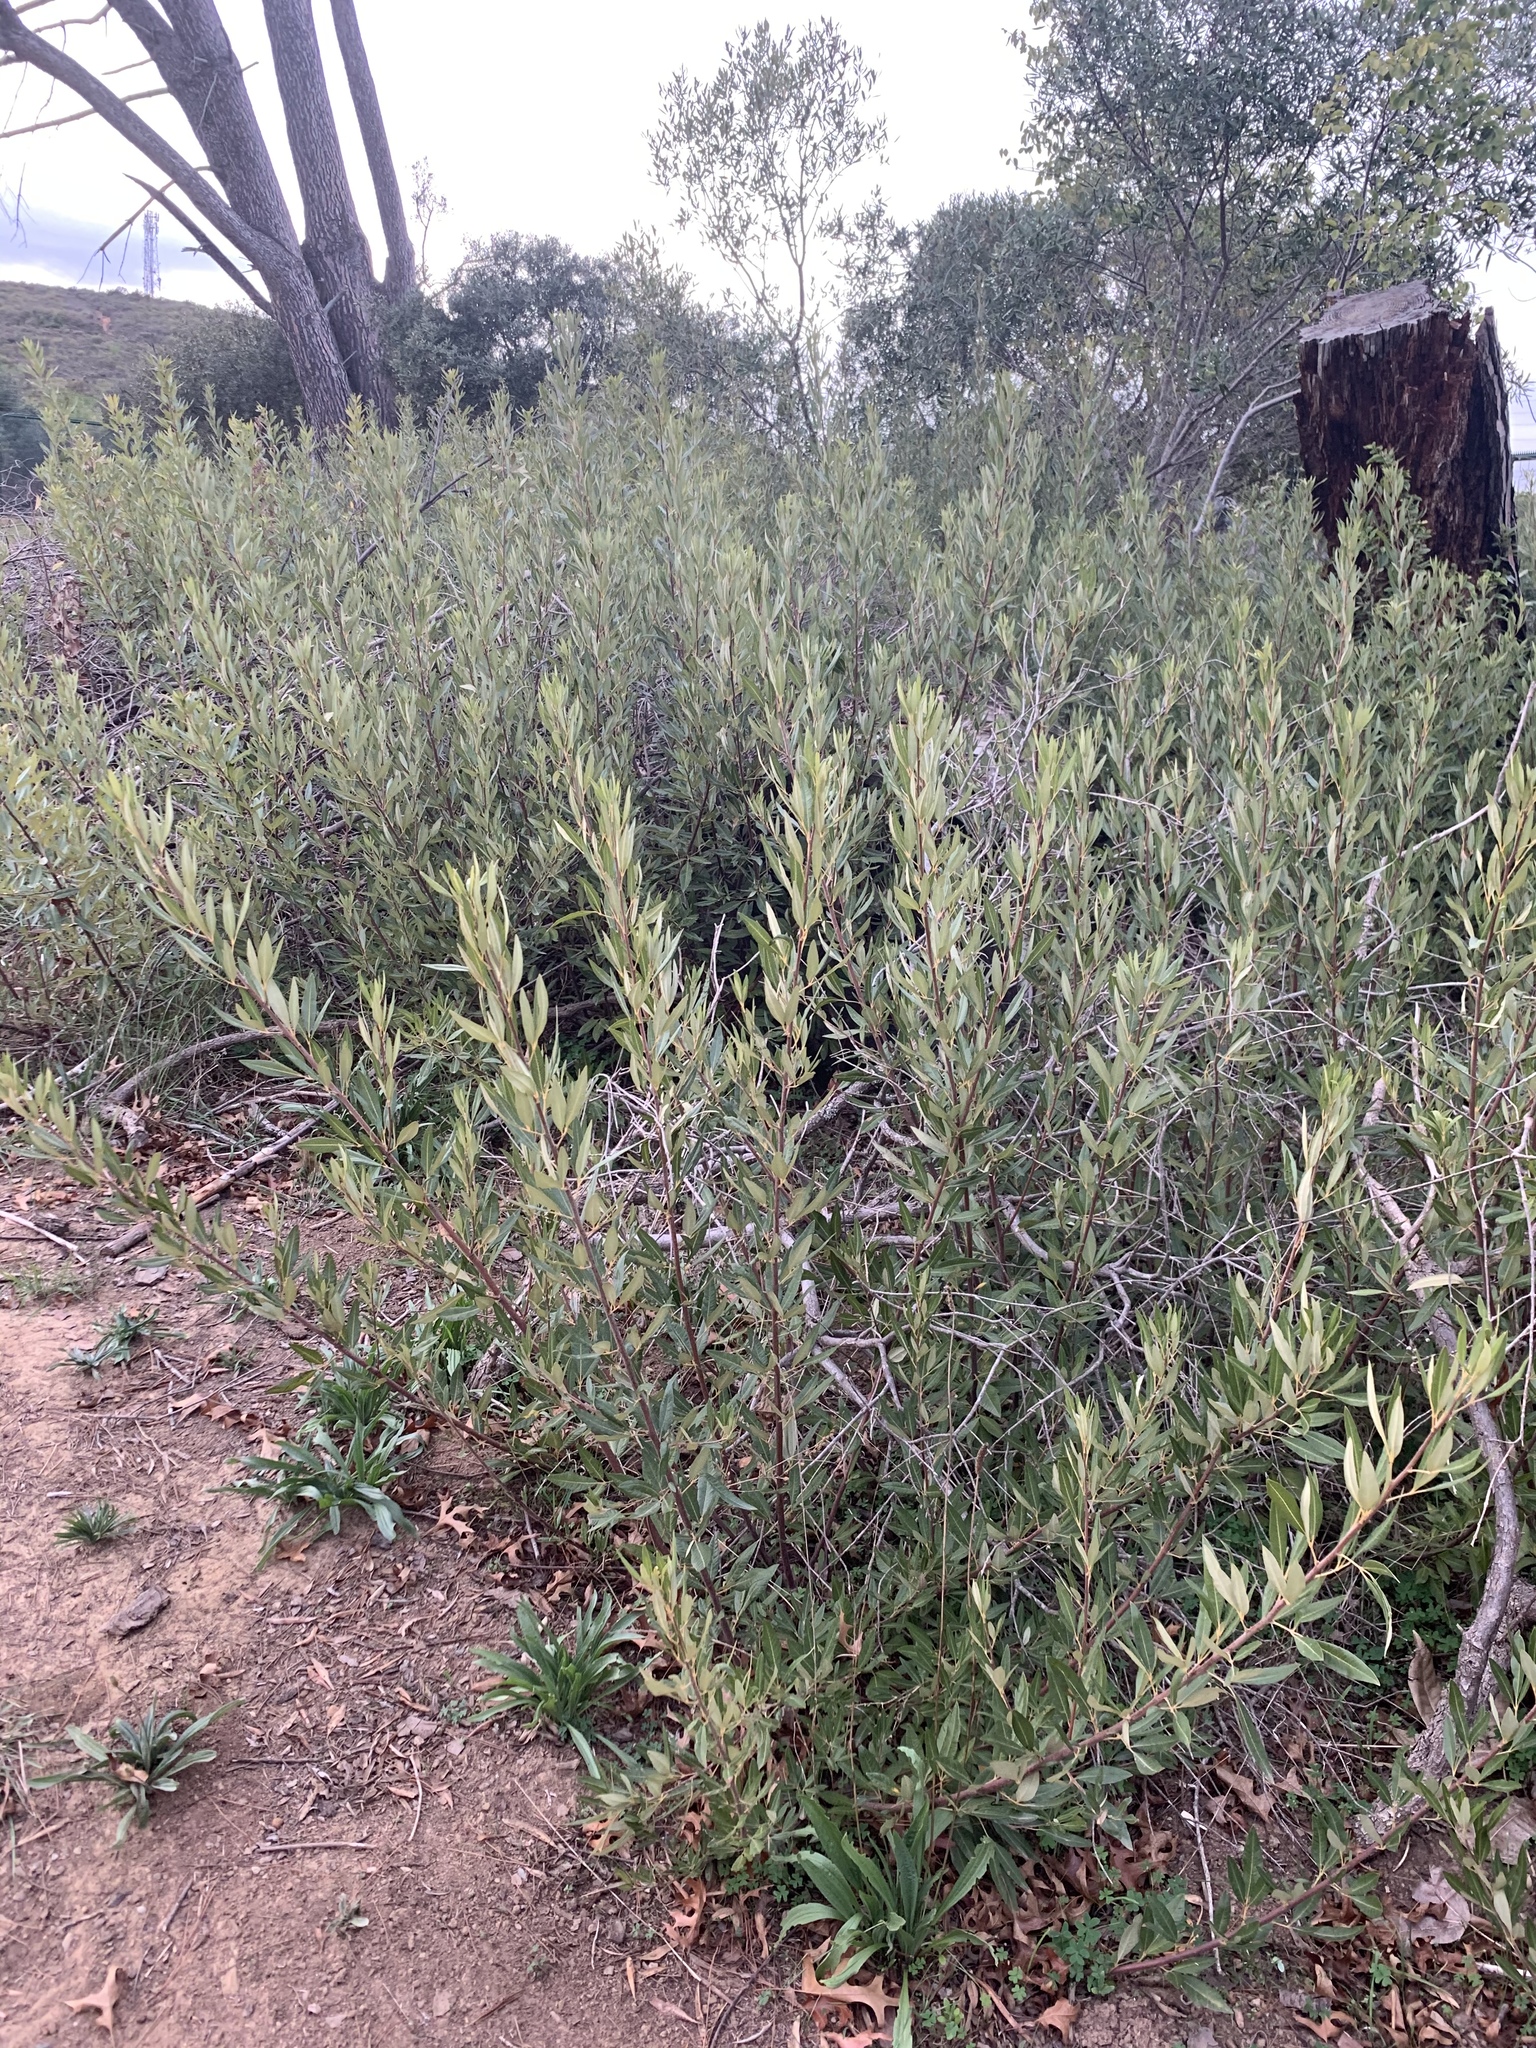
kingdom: Plantae
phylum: Tracheophyta
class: Magnoliopsida
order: Sapindales
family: Anacardiaceae
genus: Searsia
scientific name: Searsia angustifolia
